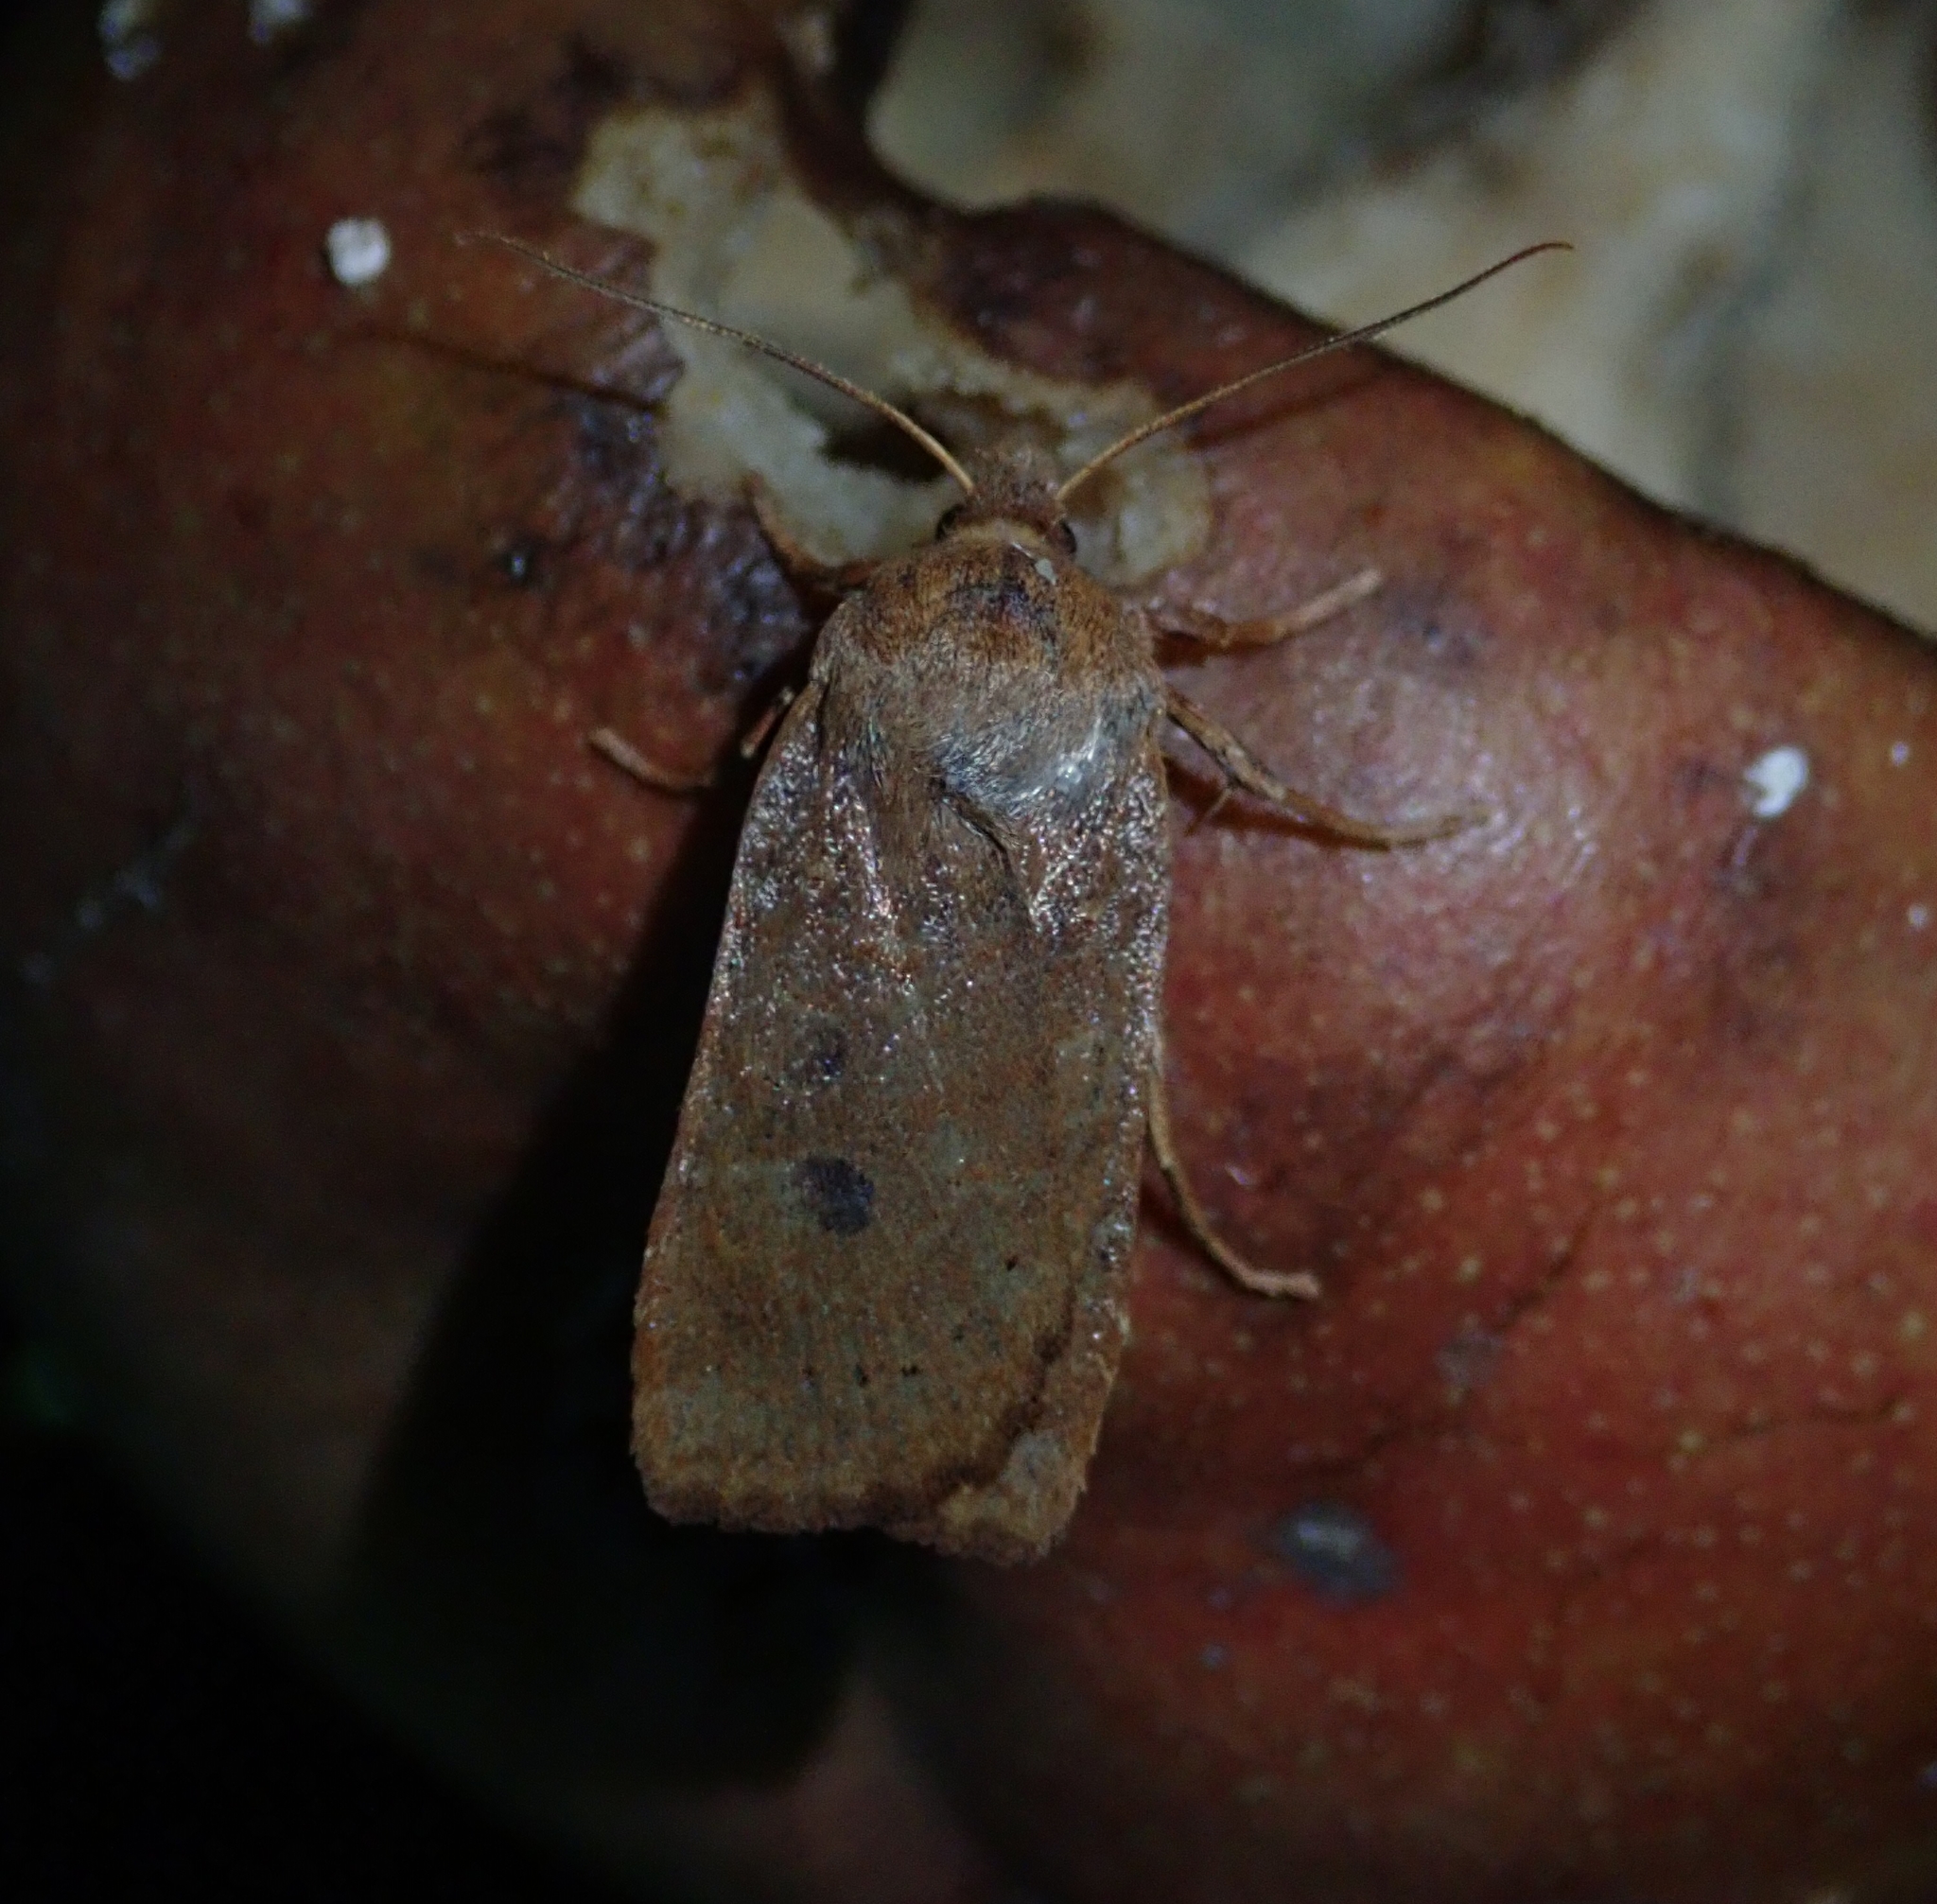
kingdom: Animalia
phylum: Arthropoda
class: Insecta
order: Lepidoptera
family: Noctuidae
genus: Conistra
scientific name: Conistra vaccinii
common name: Chestnut
